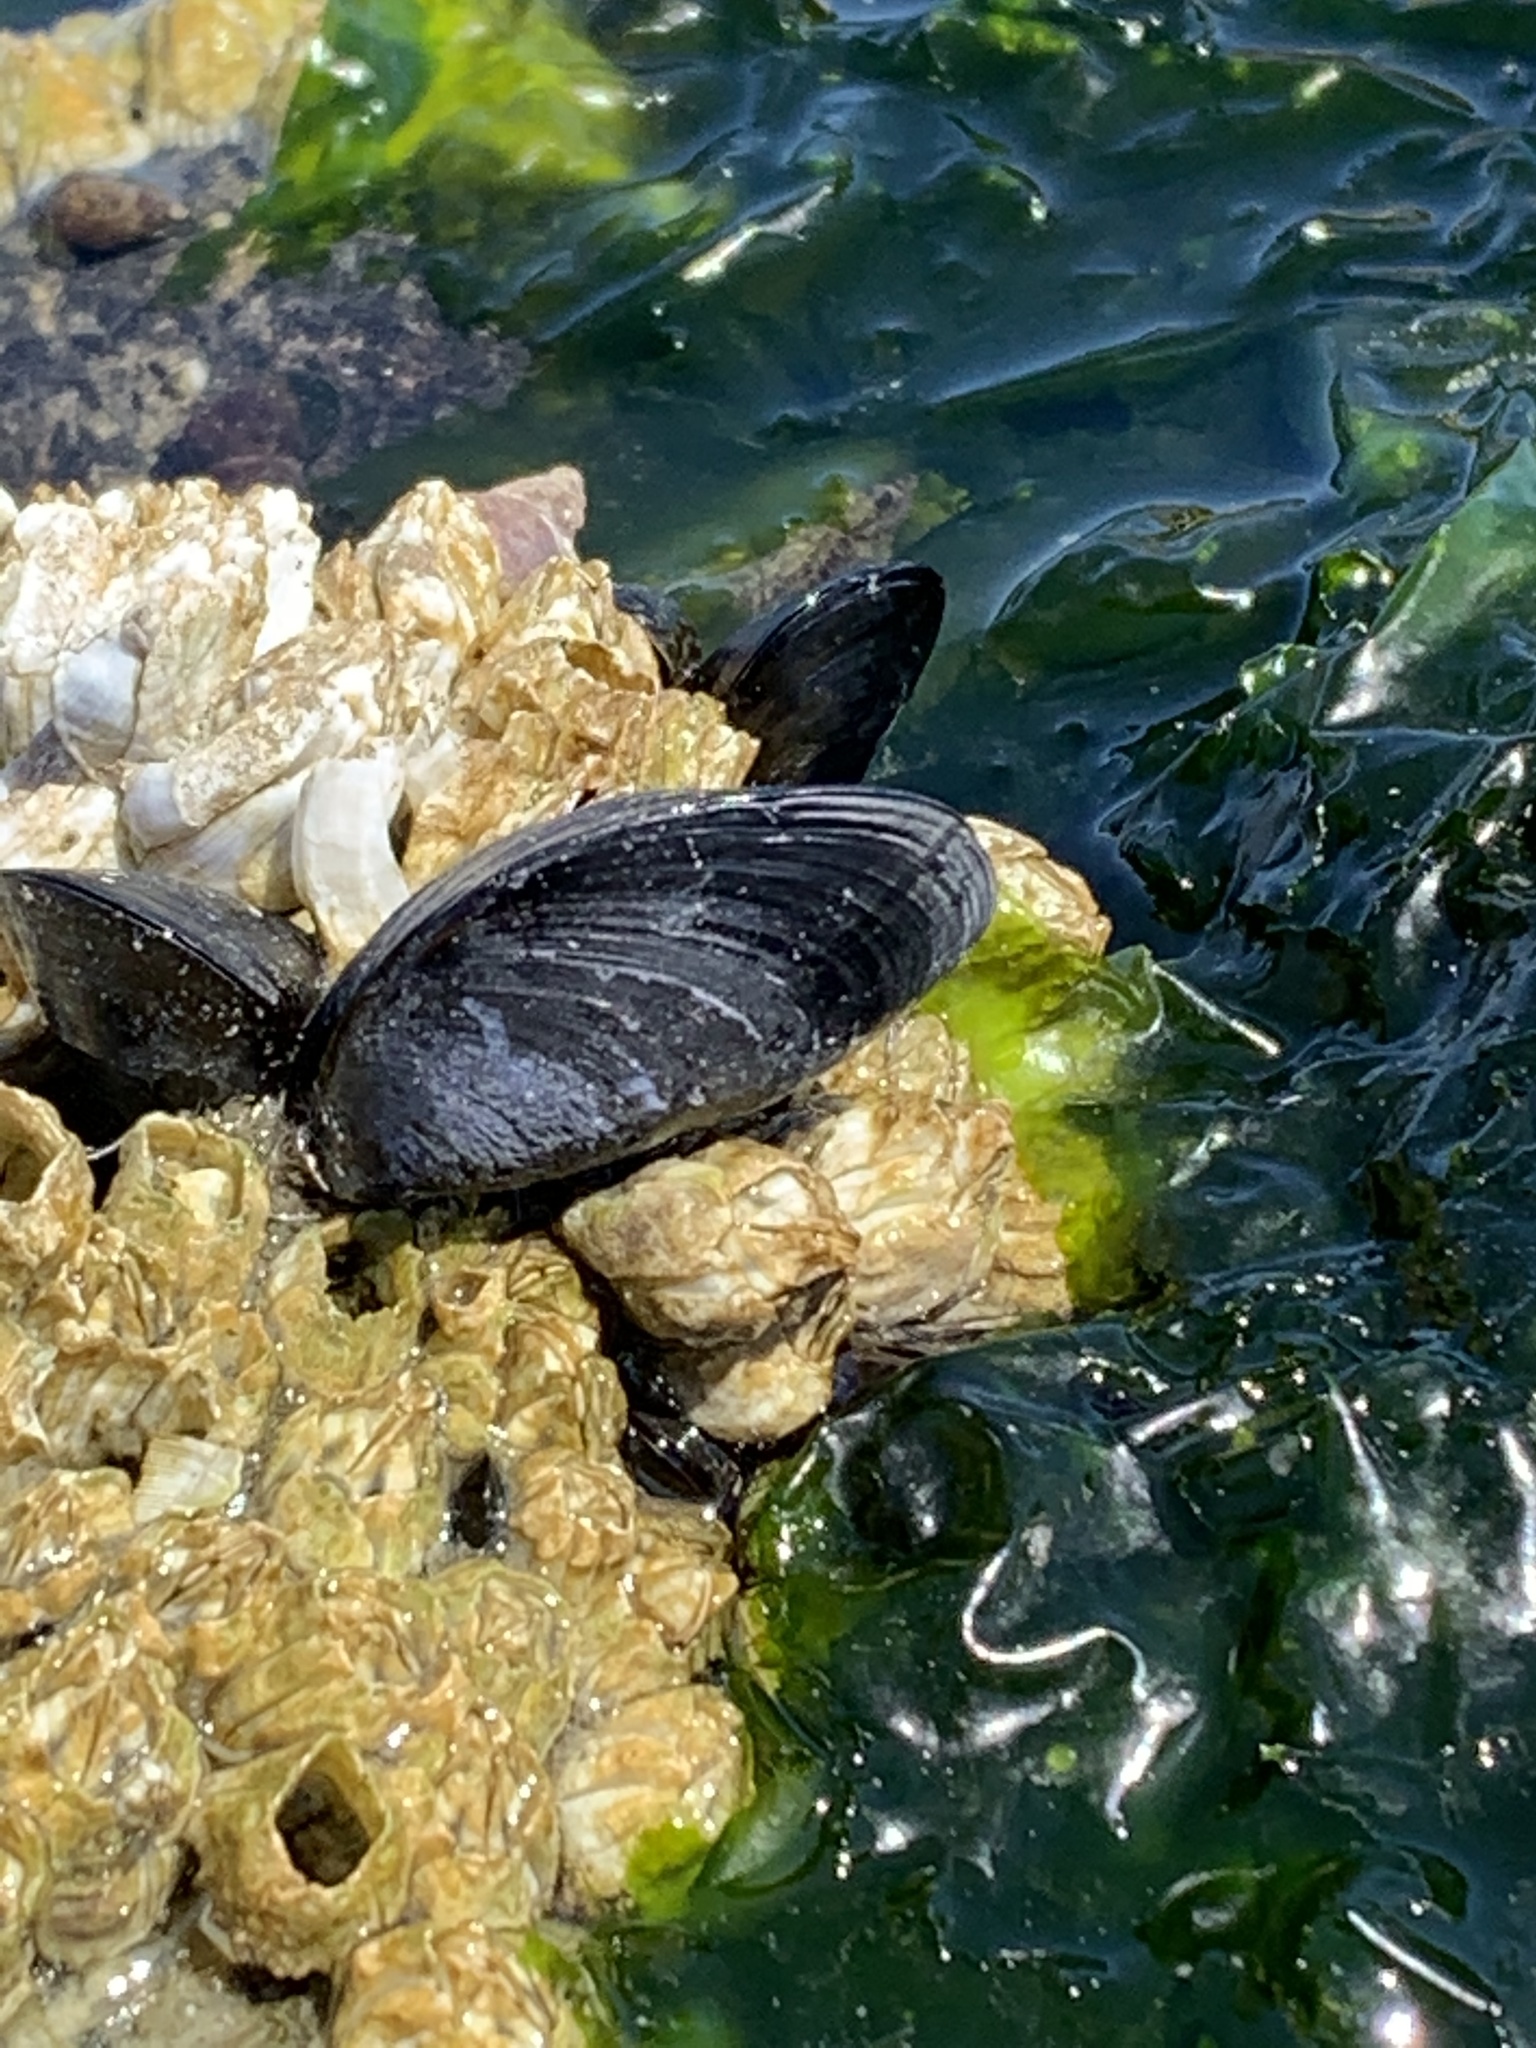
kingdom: Animalia
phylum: Mollusca
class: Bivalvia
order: Mytilida
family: Mytilidae
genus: Mytilus
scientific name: Mytilus
